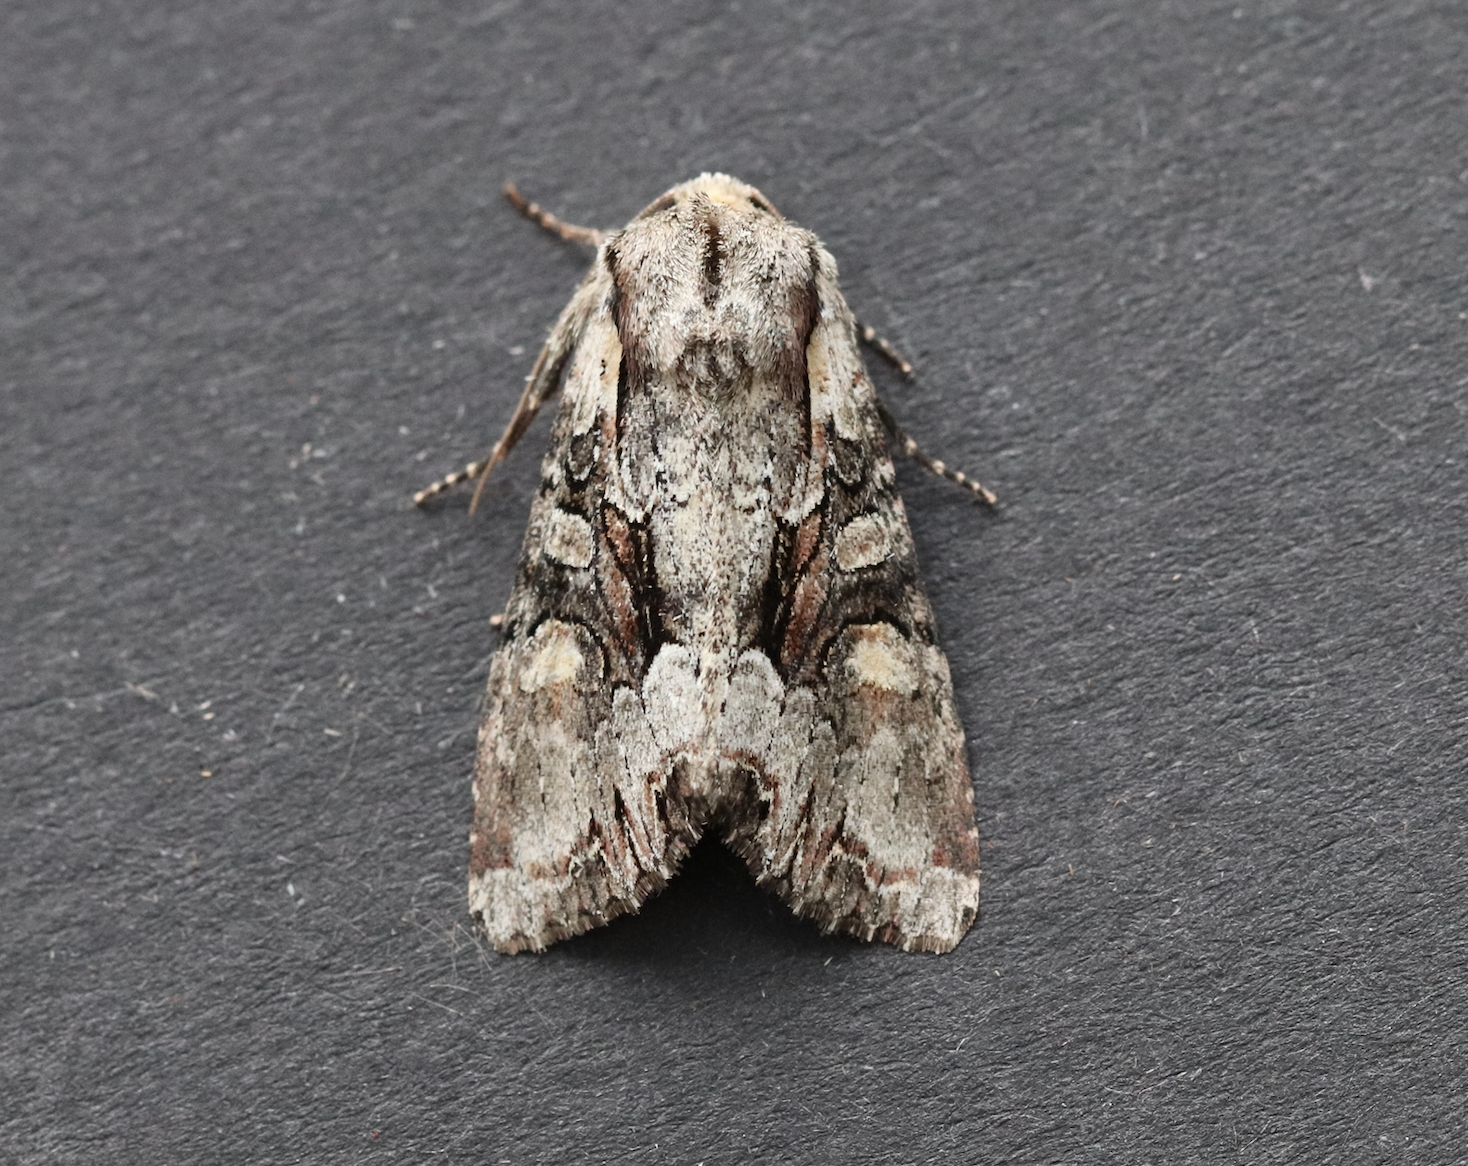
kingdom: Animalia
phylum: Arthropoda
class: Insecta
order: Lepidoptera
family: Noctuidae
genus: Lacanobia
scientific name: Lacanobia w-latinum
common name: Light brocade
